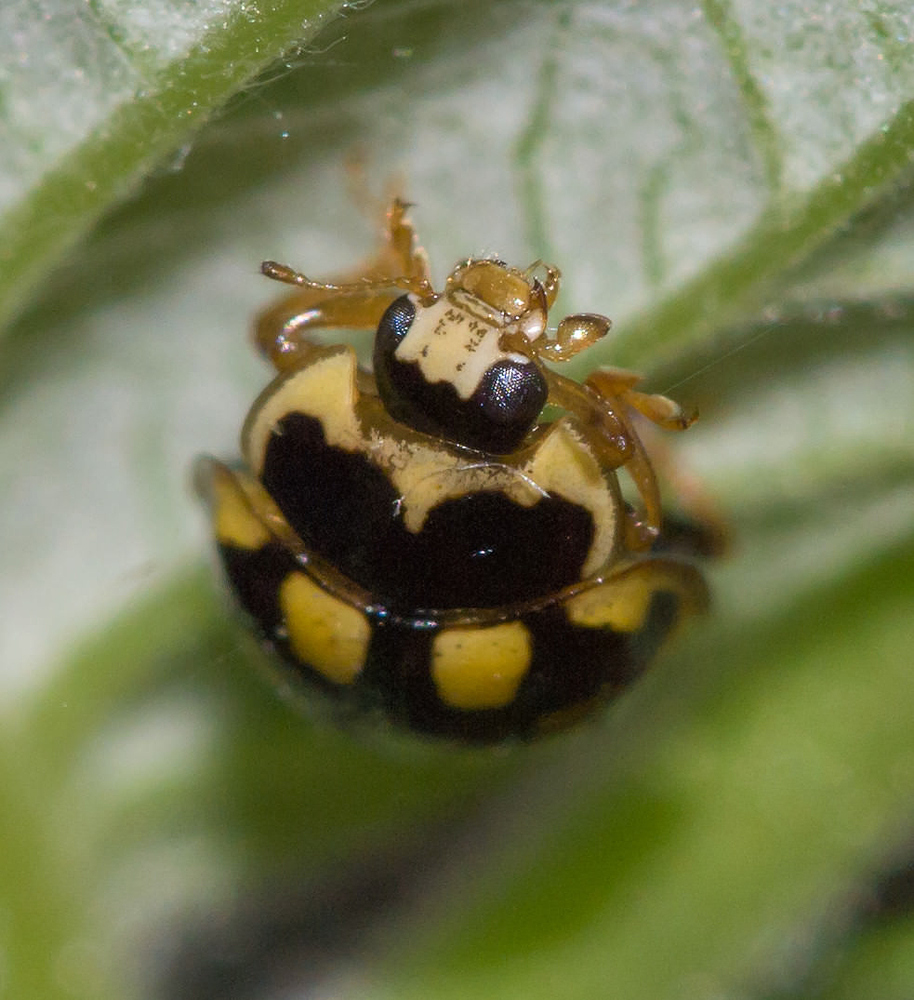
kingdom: Animalia
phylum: Arthropoda
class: Insecta
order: Coleoptera
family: Coccinellidae
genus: Propylaea
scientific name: Propylaea quatuordecimpunctata
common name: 14-spotted ladybird beetle
